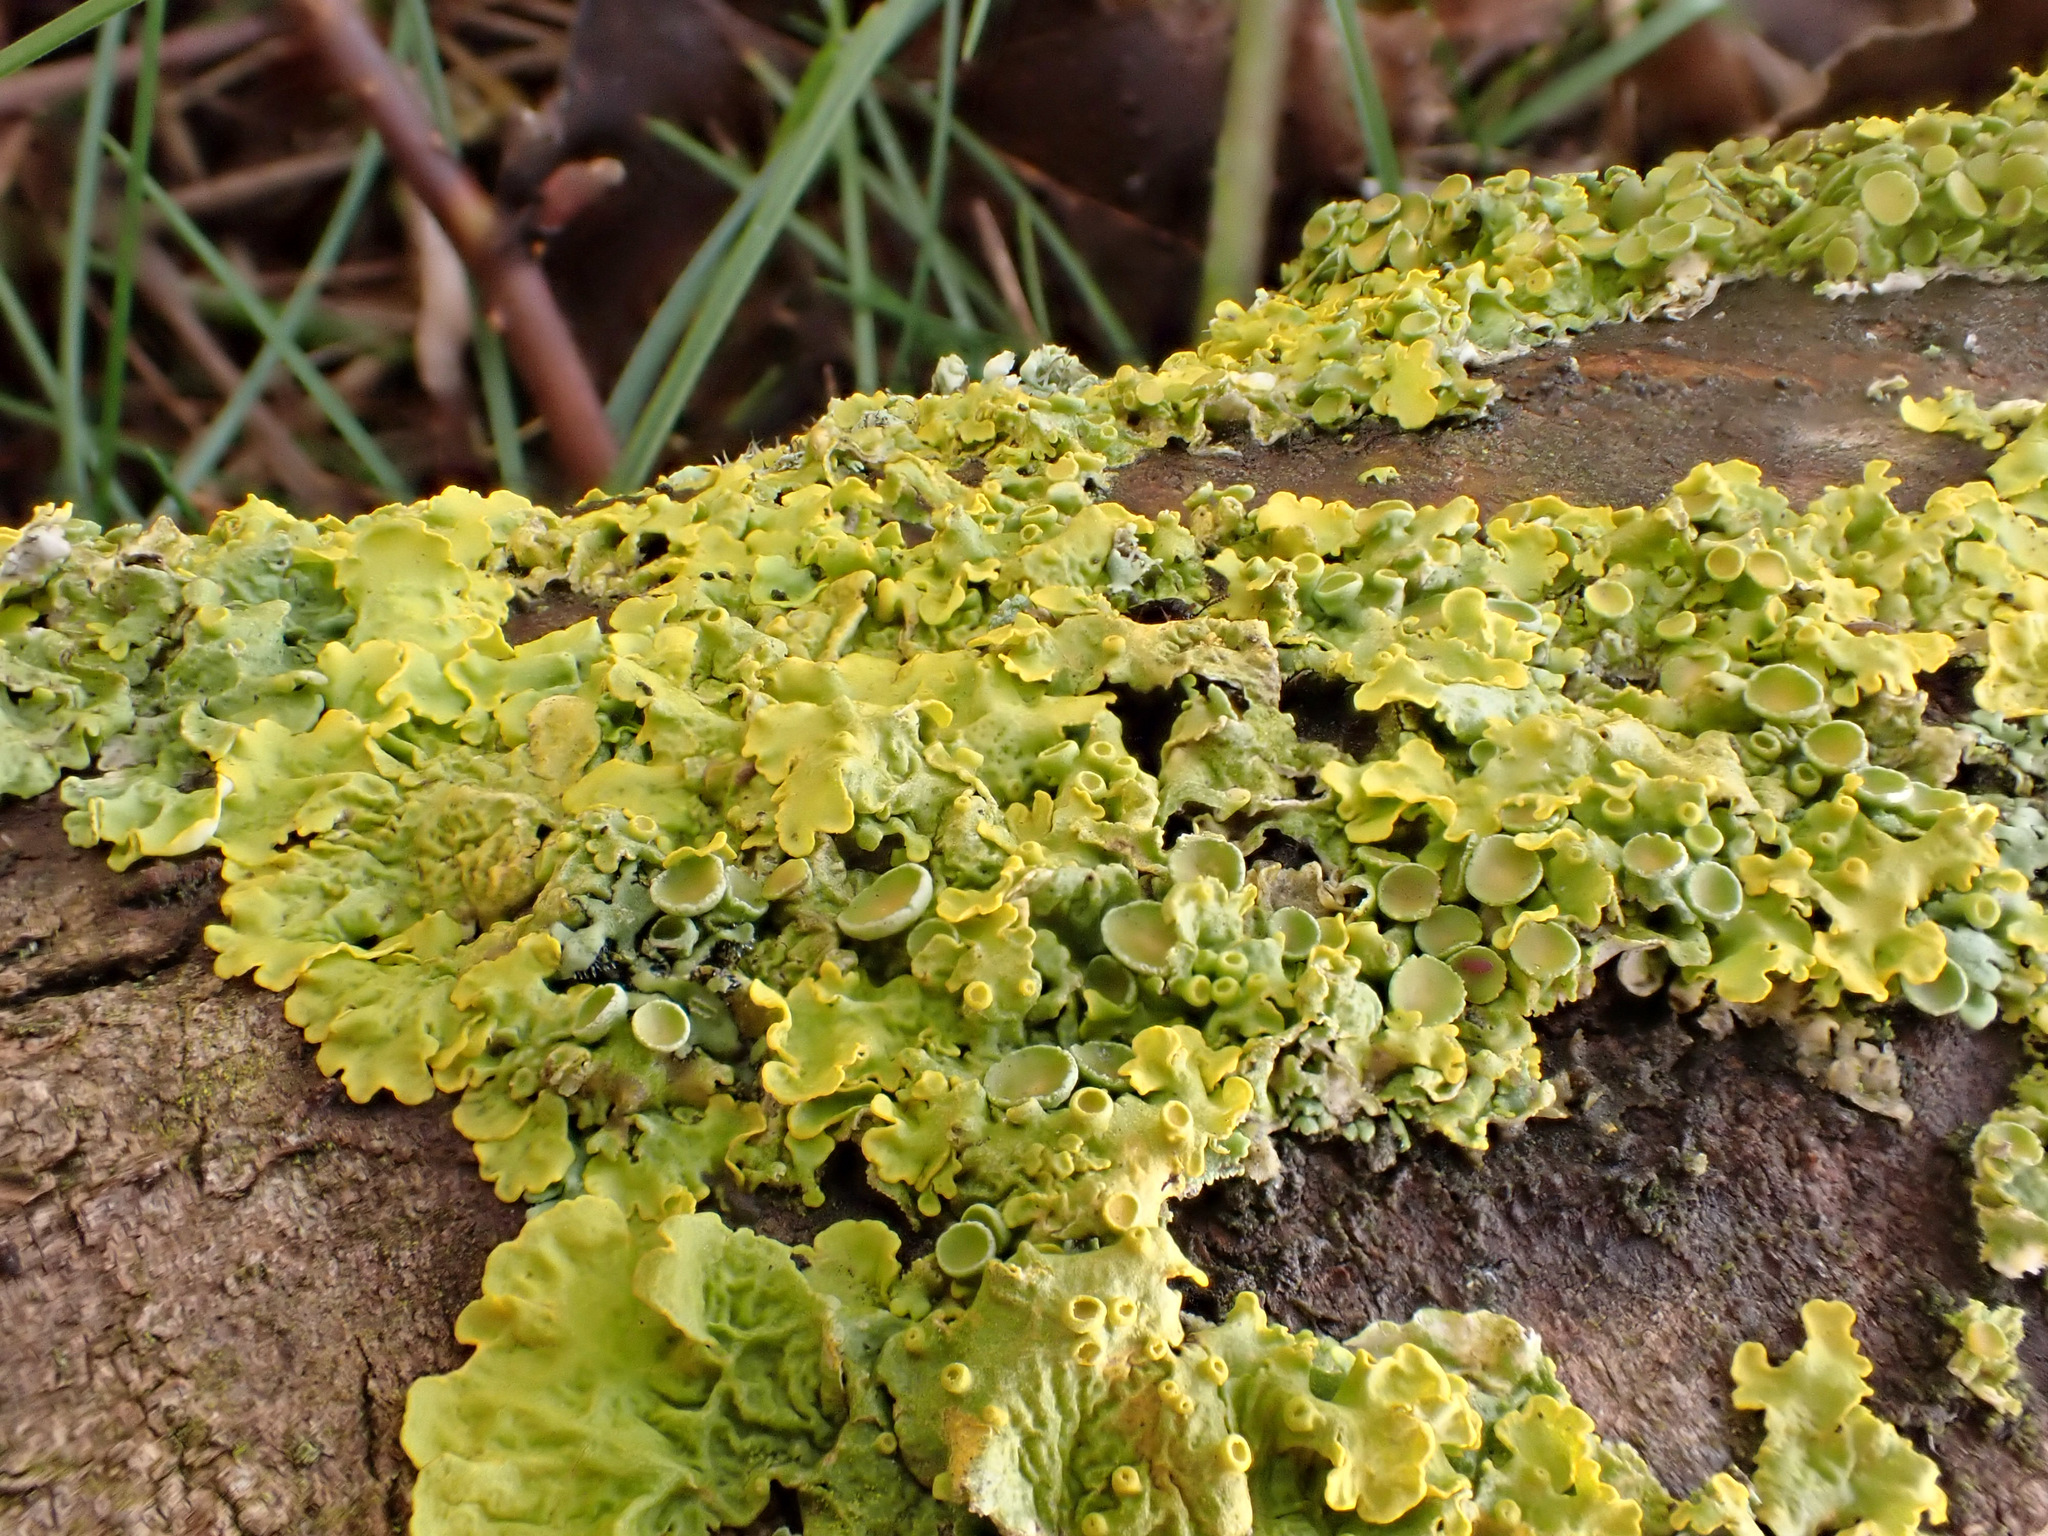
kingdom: Fungi
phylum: Ascomycota
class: Lecanoromycetes
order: Teloschistales
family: Teloschistaceae
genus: Xanthoria
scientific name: Xanthoria parietina
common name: Common orange lichen
